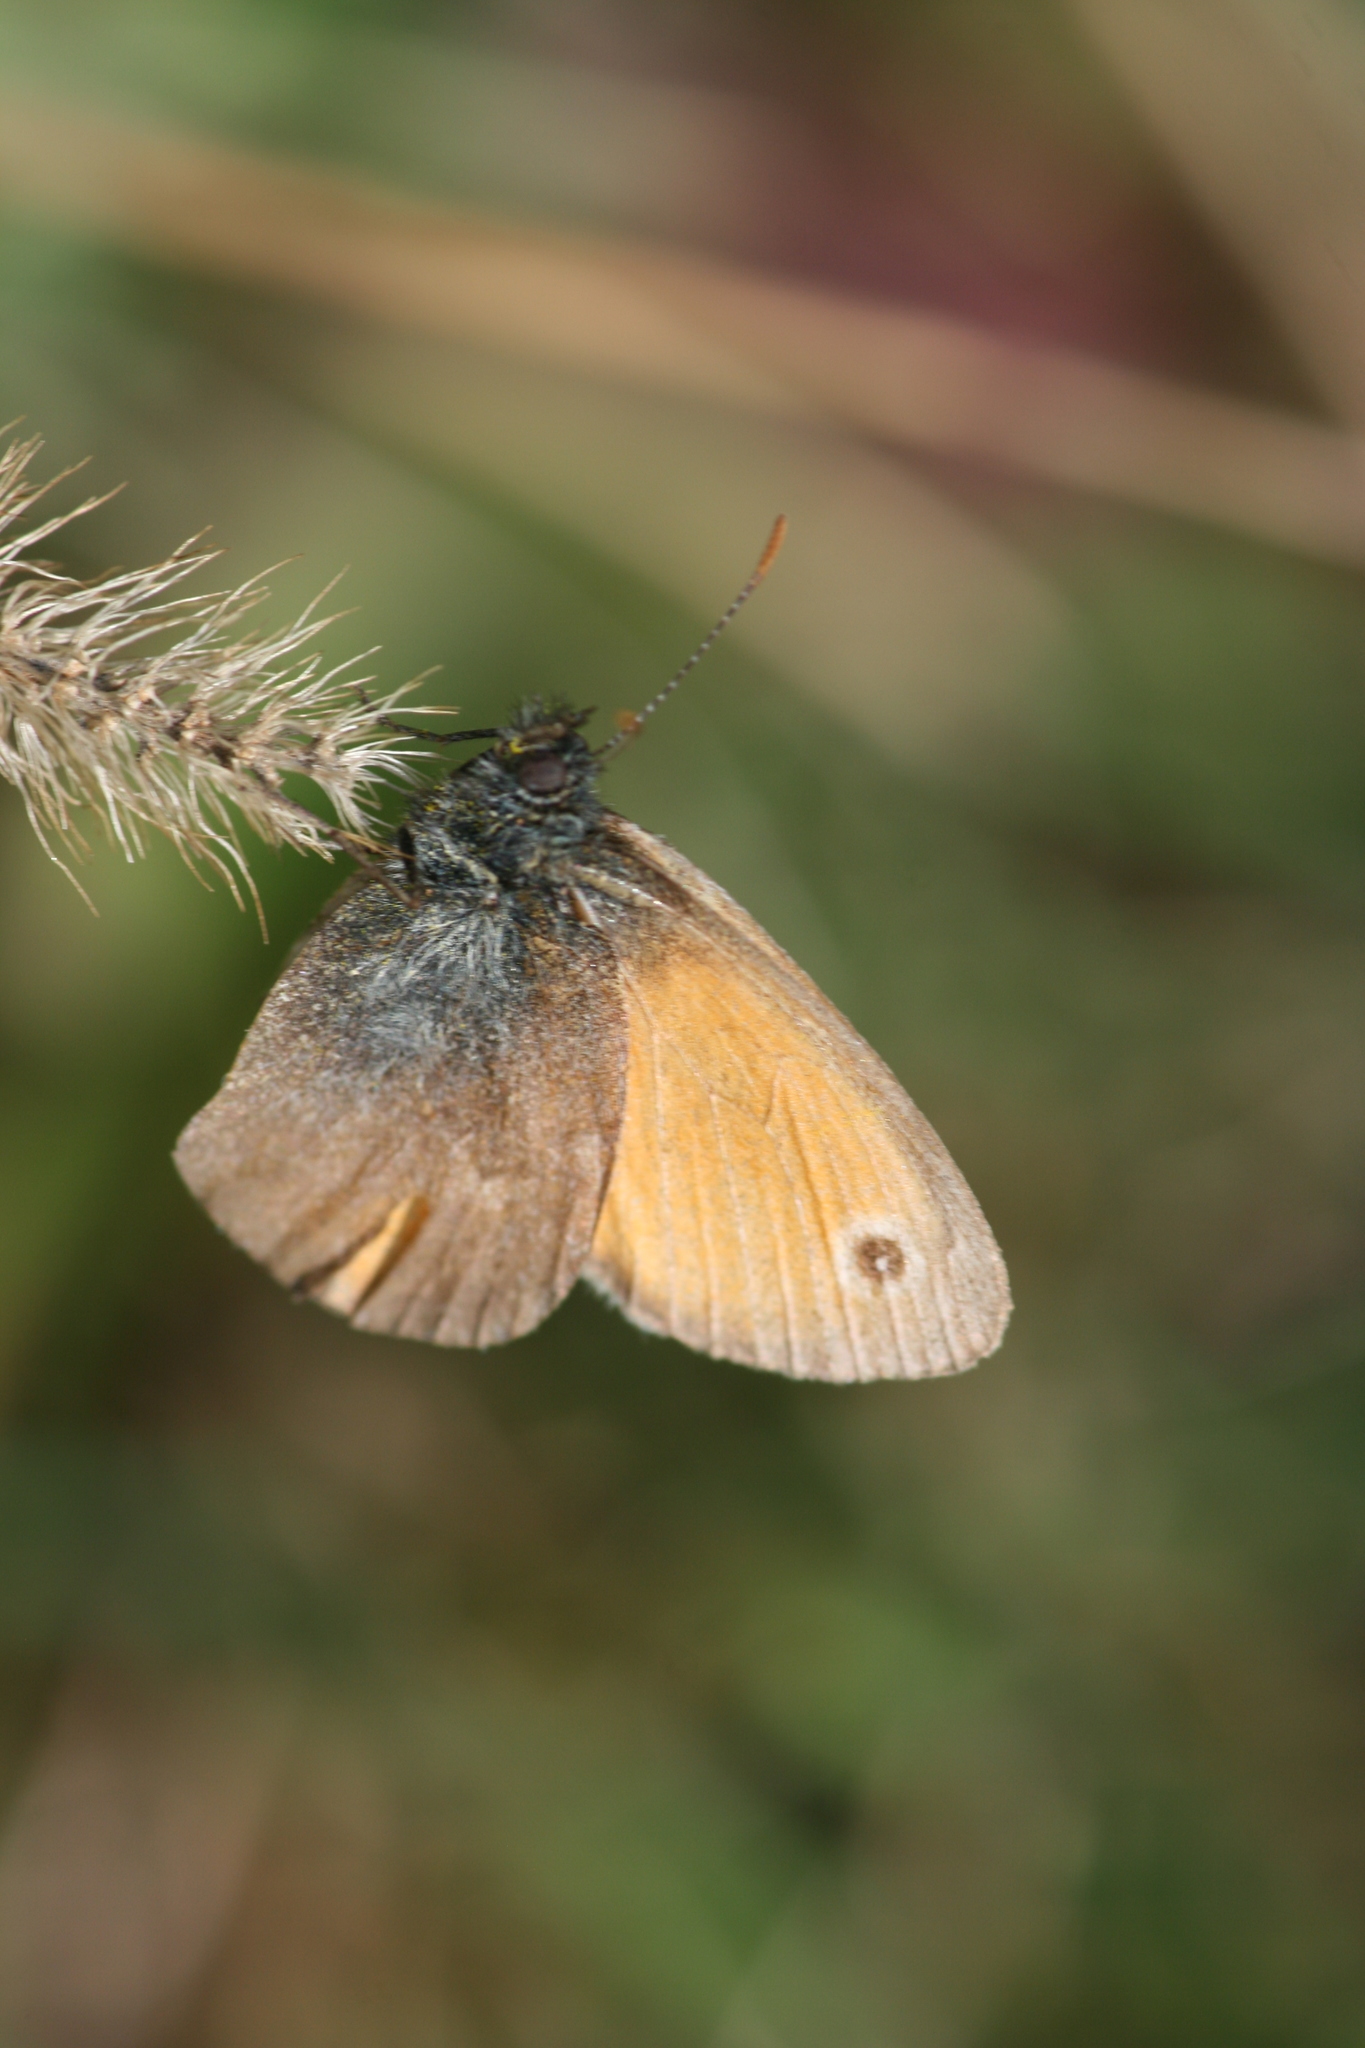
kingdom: Animalia
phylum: Arthropoda
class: Insecta
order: Lepidoptera
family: Nymphalidae
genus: Coenonympha
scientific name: Coenonympha pamphilus
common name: Small heath
